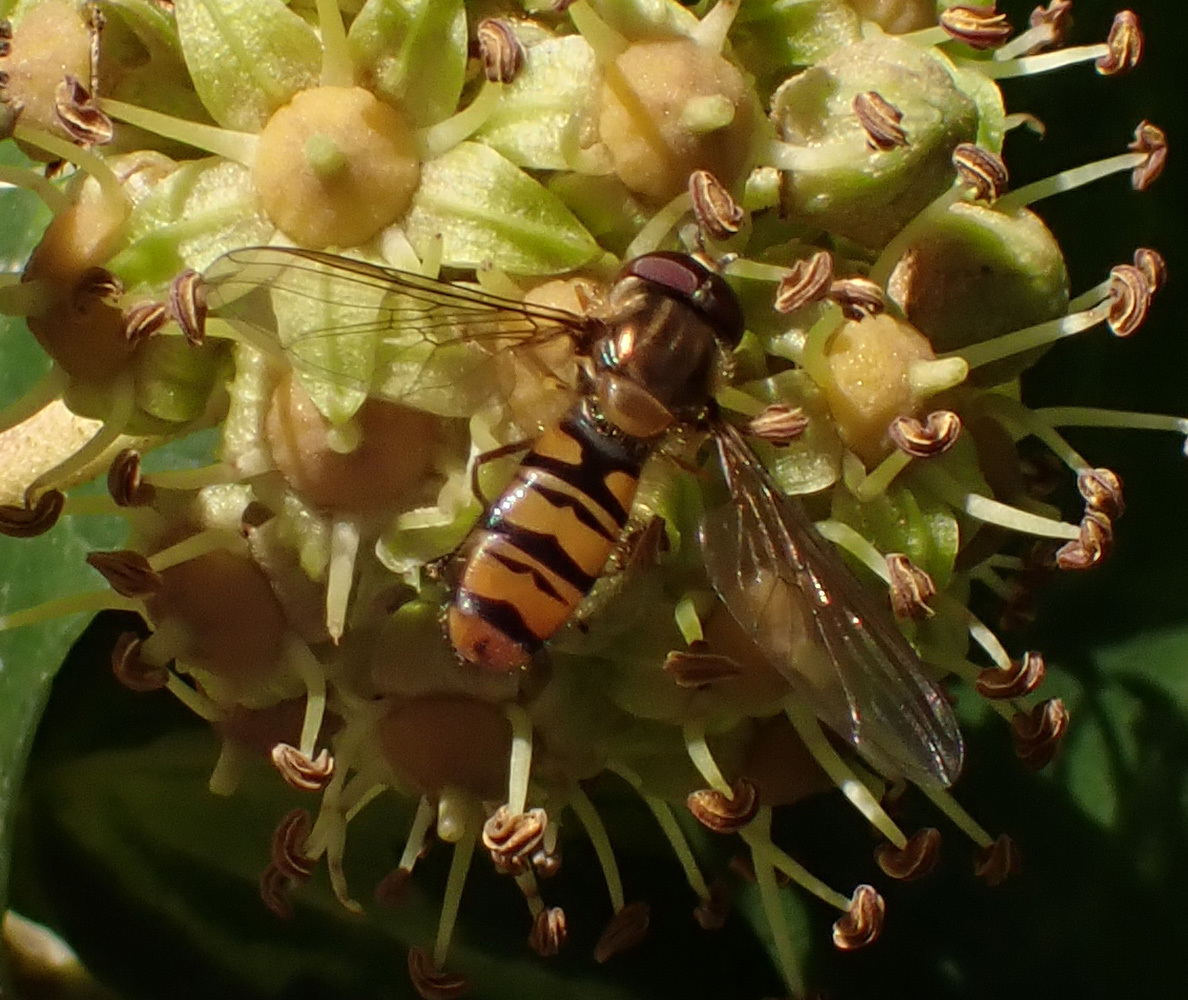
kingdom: Animalia
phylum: Arthropoda
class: Insecta
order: Diptera
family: Syrphidae
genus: Episyrphus
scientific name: Episyrphus balteatus
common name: Marmalade hoverfly
